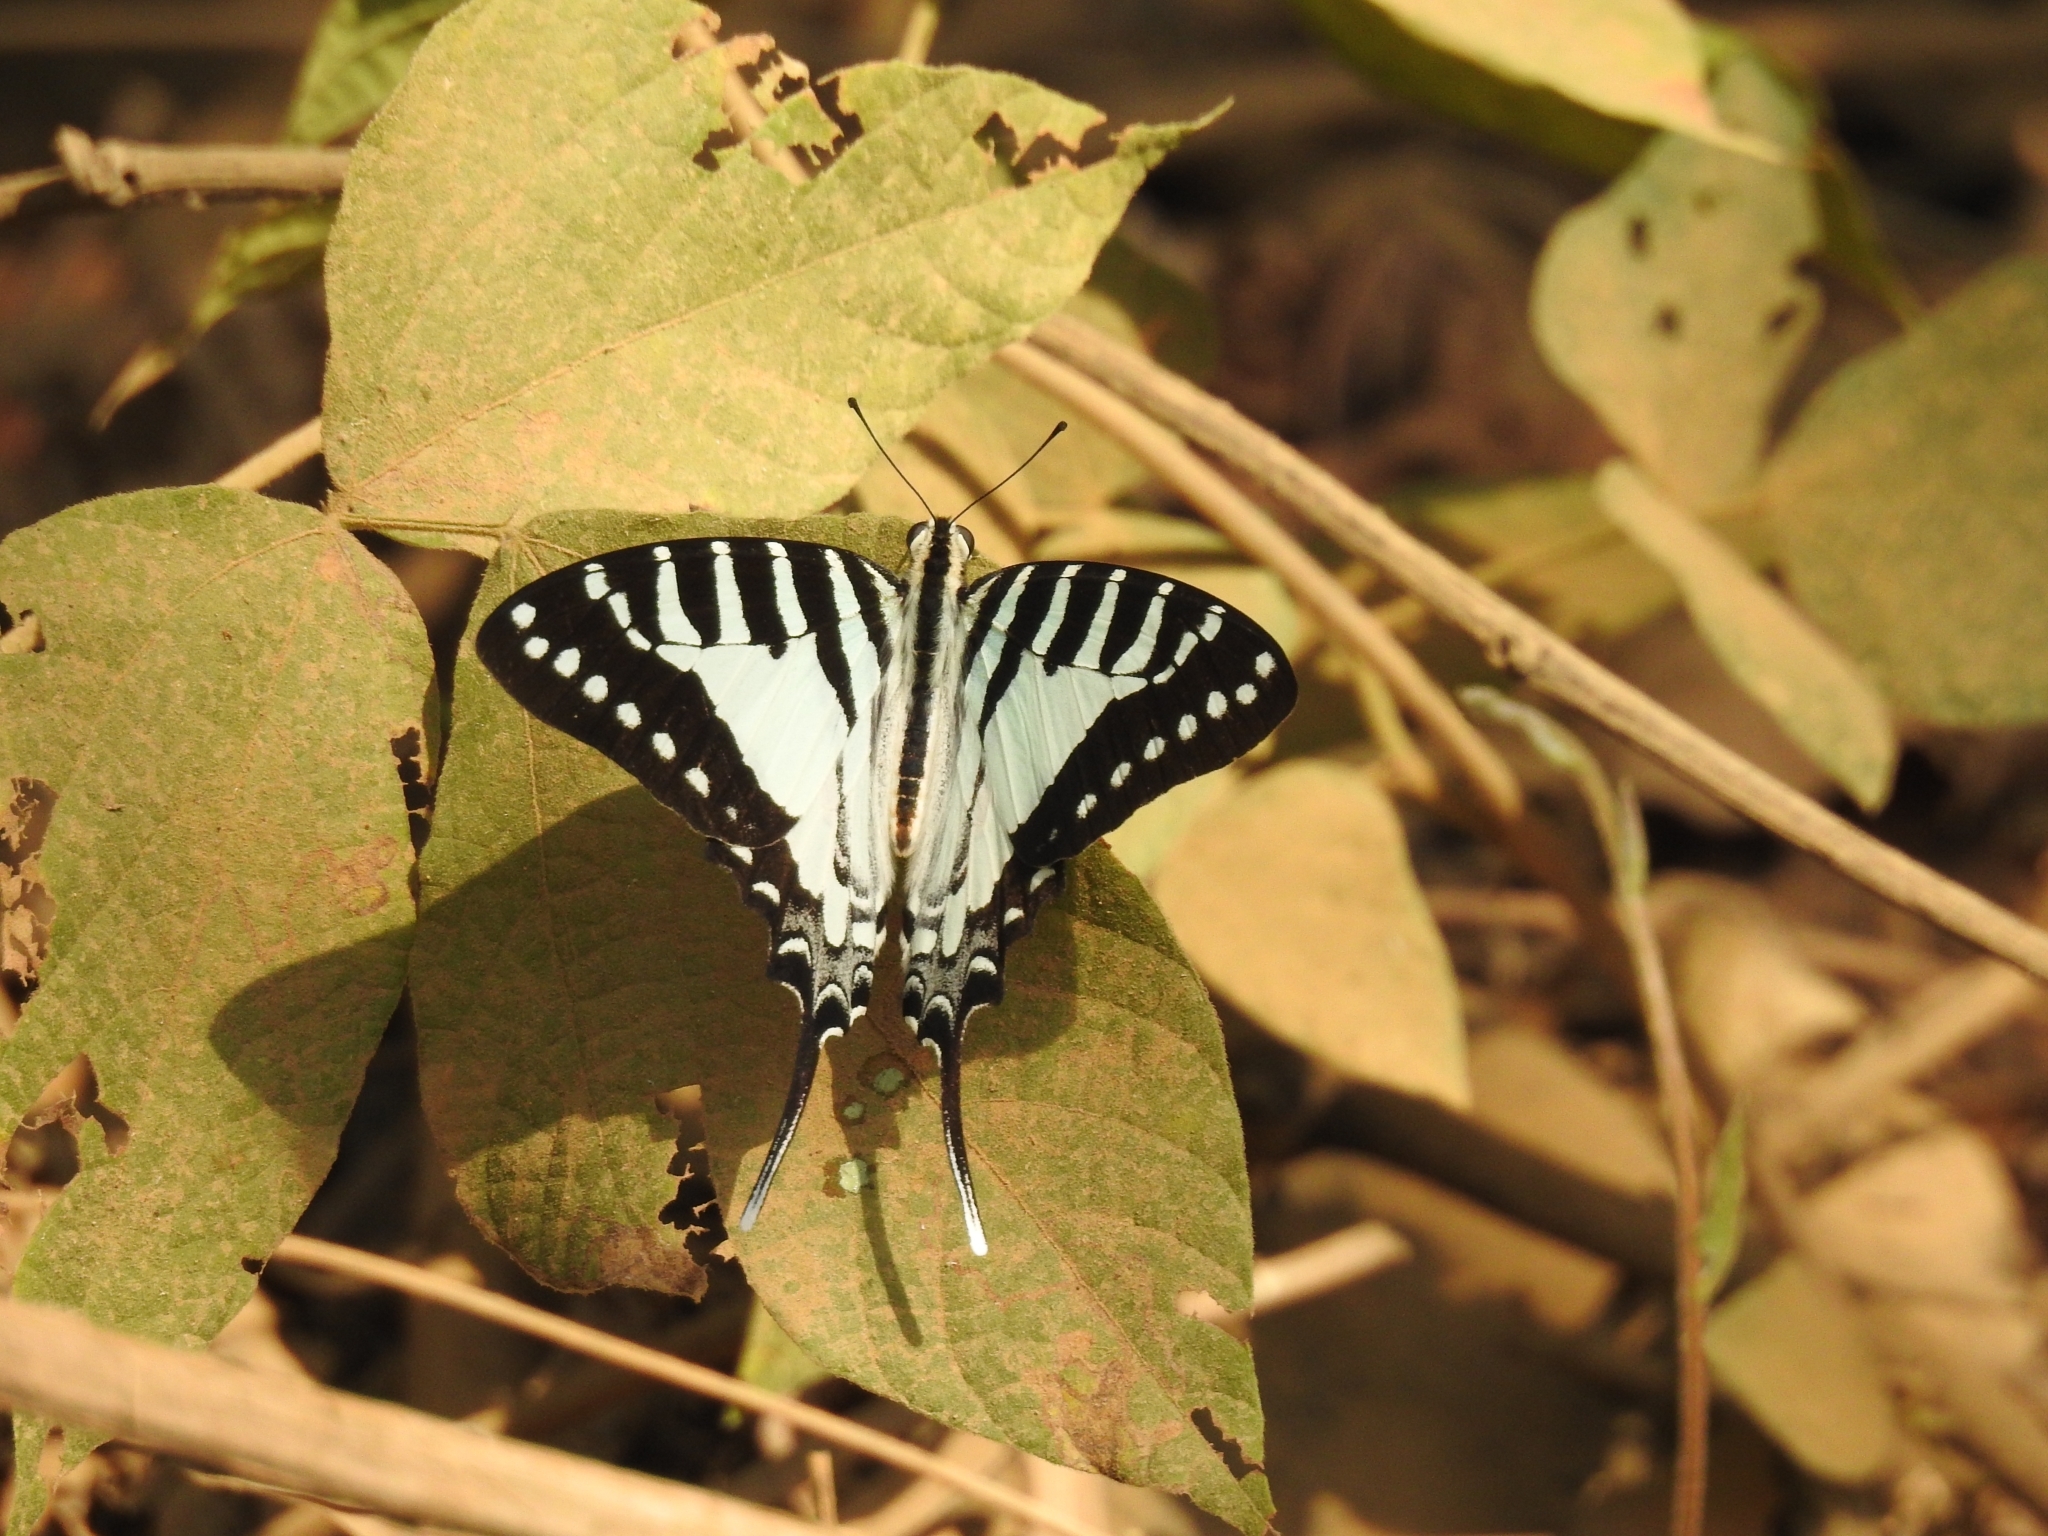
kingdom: Animalia
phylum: Arthropoda
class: Insecta
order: Lepidoptera
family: Papilionidae
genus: Graphium
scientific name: Graphium nomius
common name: Spot swordtail
